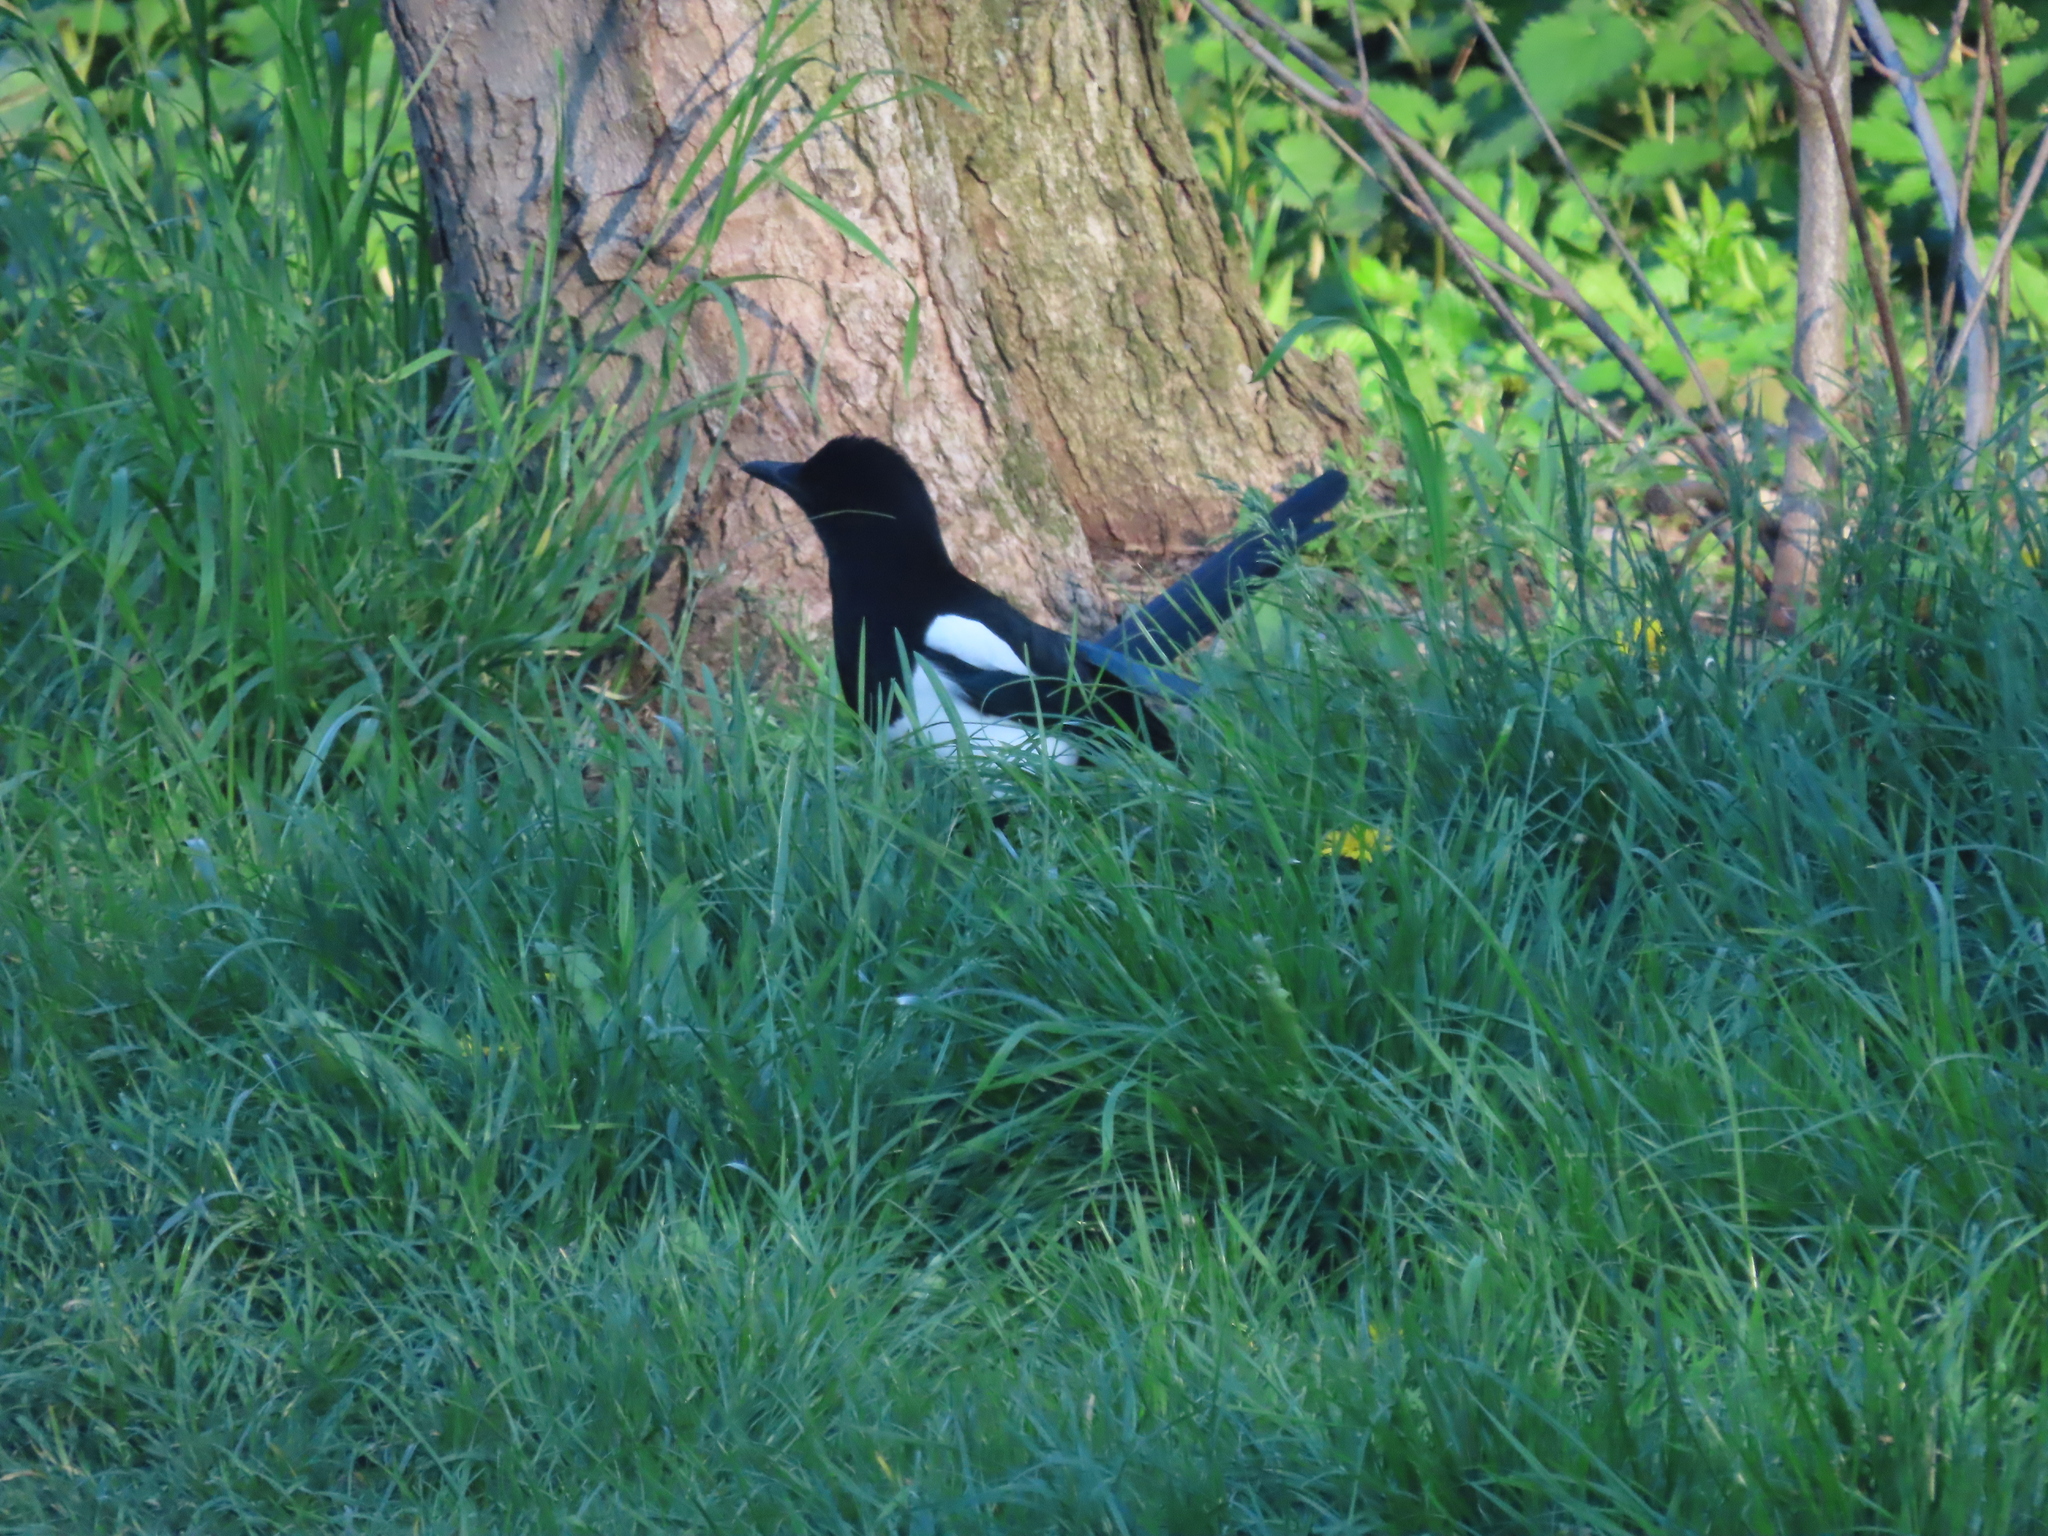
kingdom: Animalia
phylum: Chordata
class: Aves
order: Passeriformes
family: Corvidae
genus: Pica
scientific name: Pica pica
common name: Eurasian magpie
